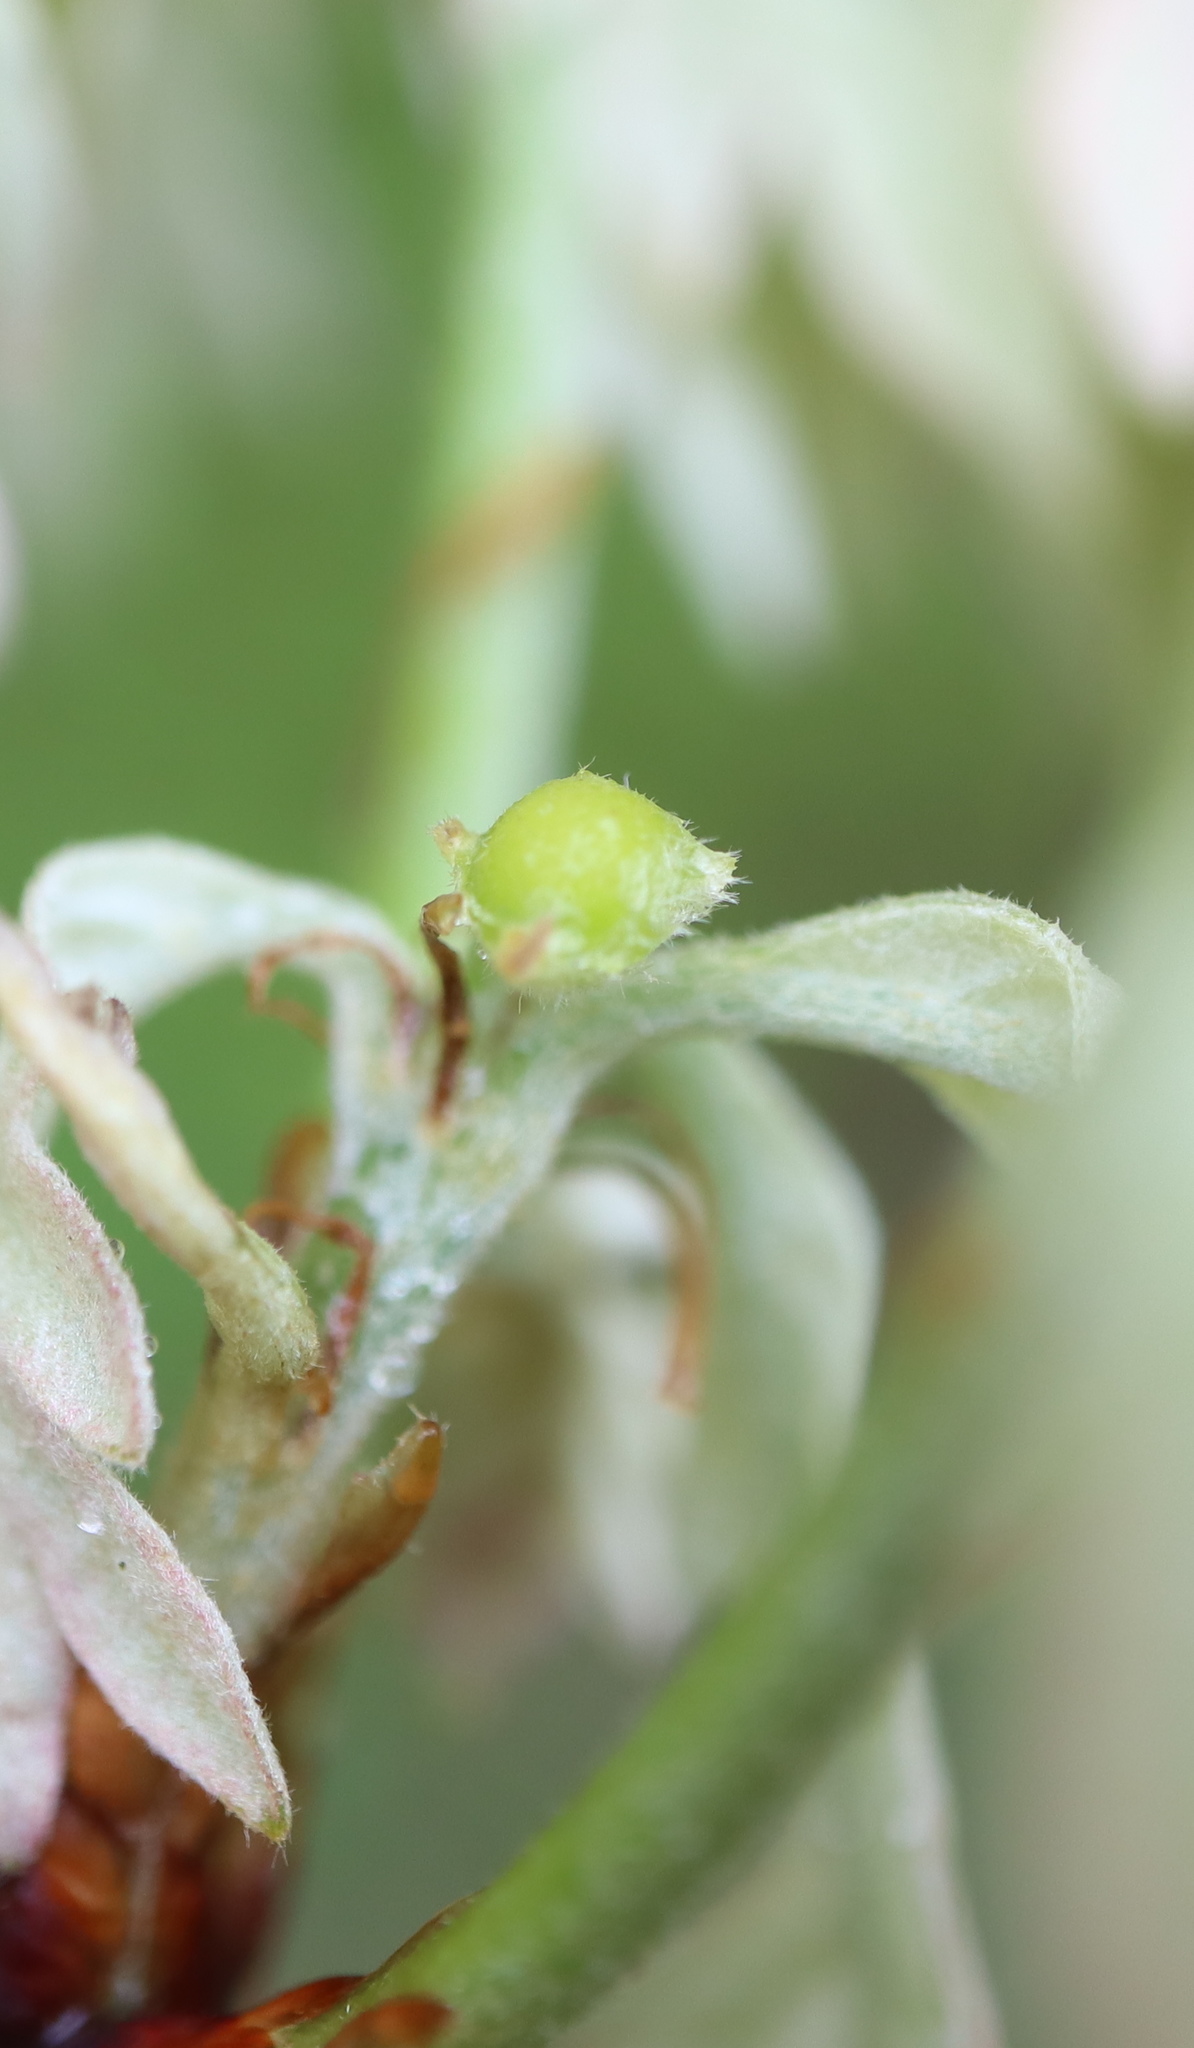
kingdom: Animalia
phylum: Arthropoda
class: Insecta
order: Hymenoptera
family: Cynipidae
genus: Andricus
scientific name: Andricus
